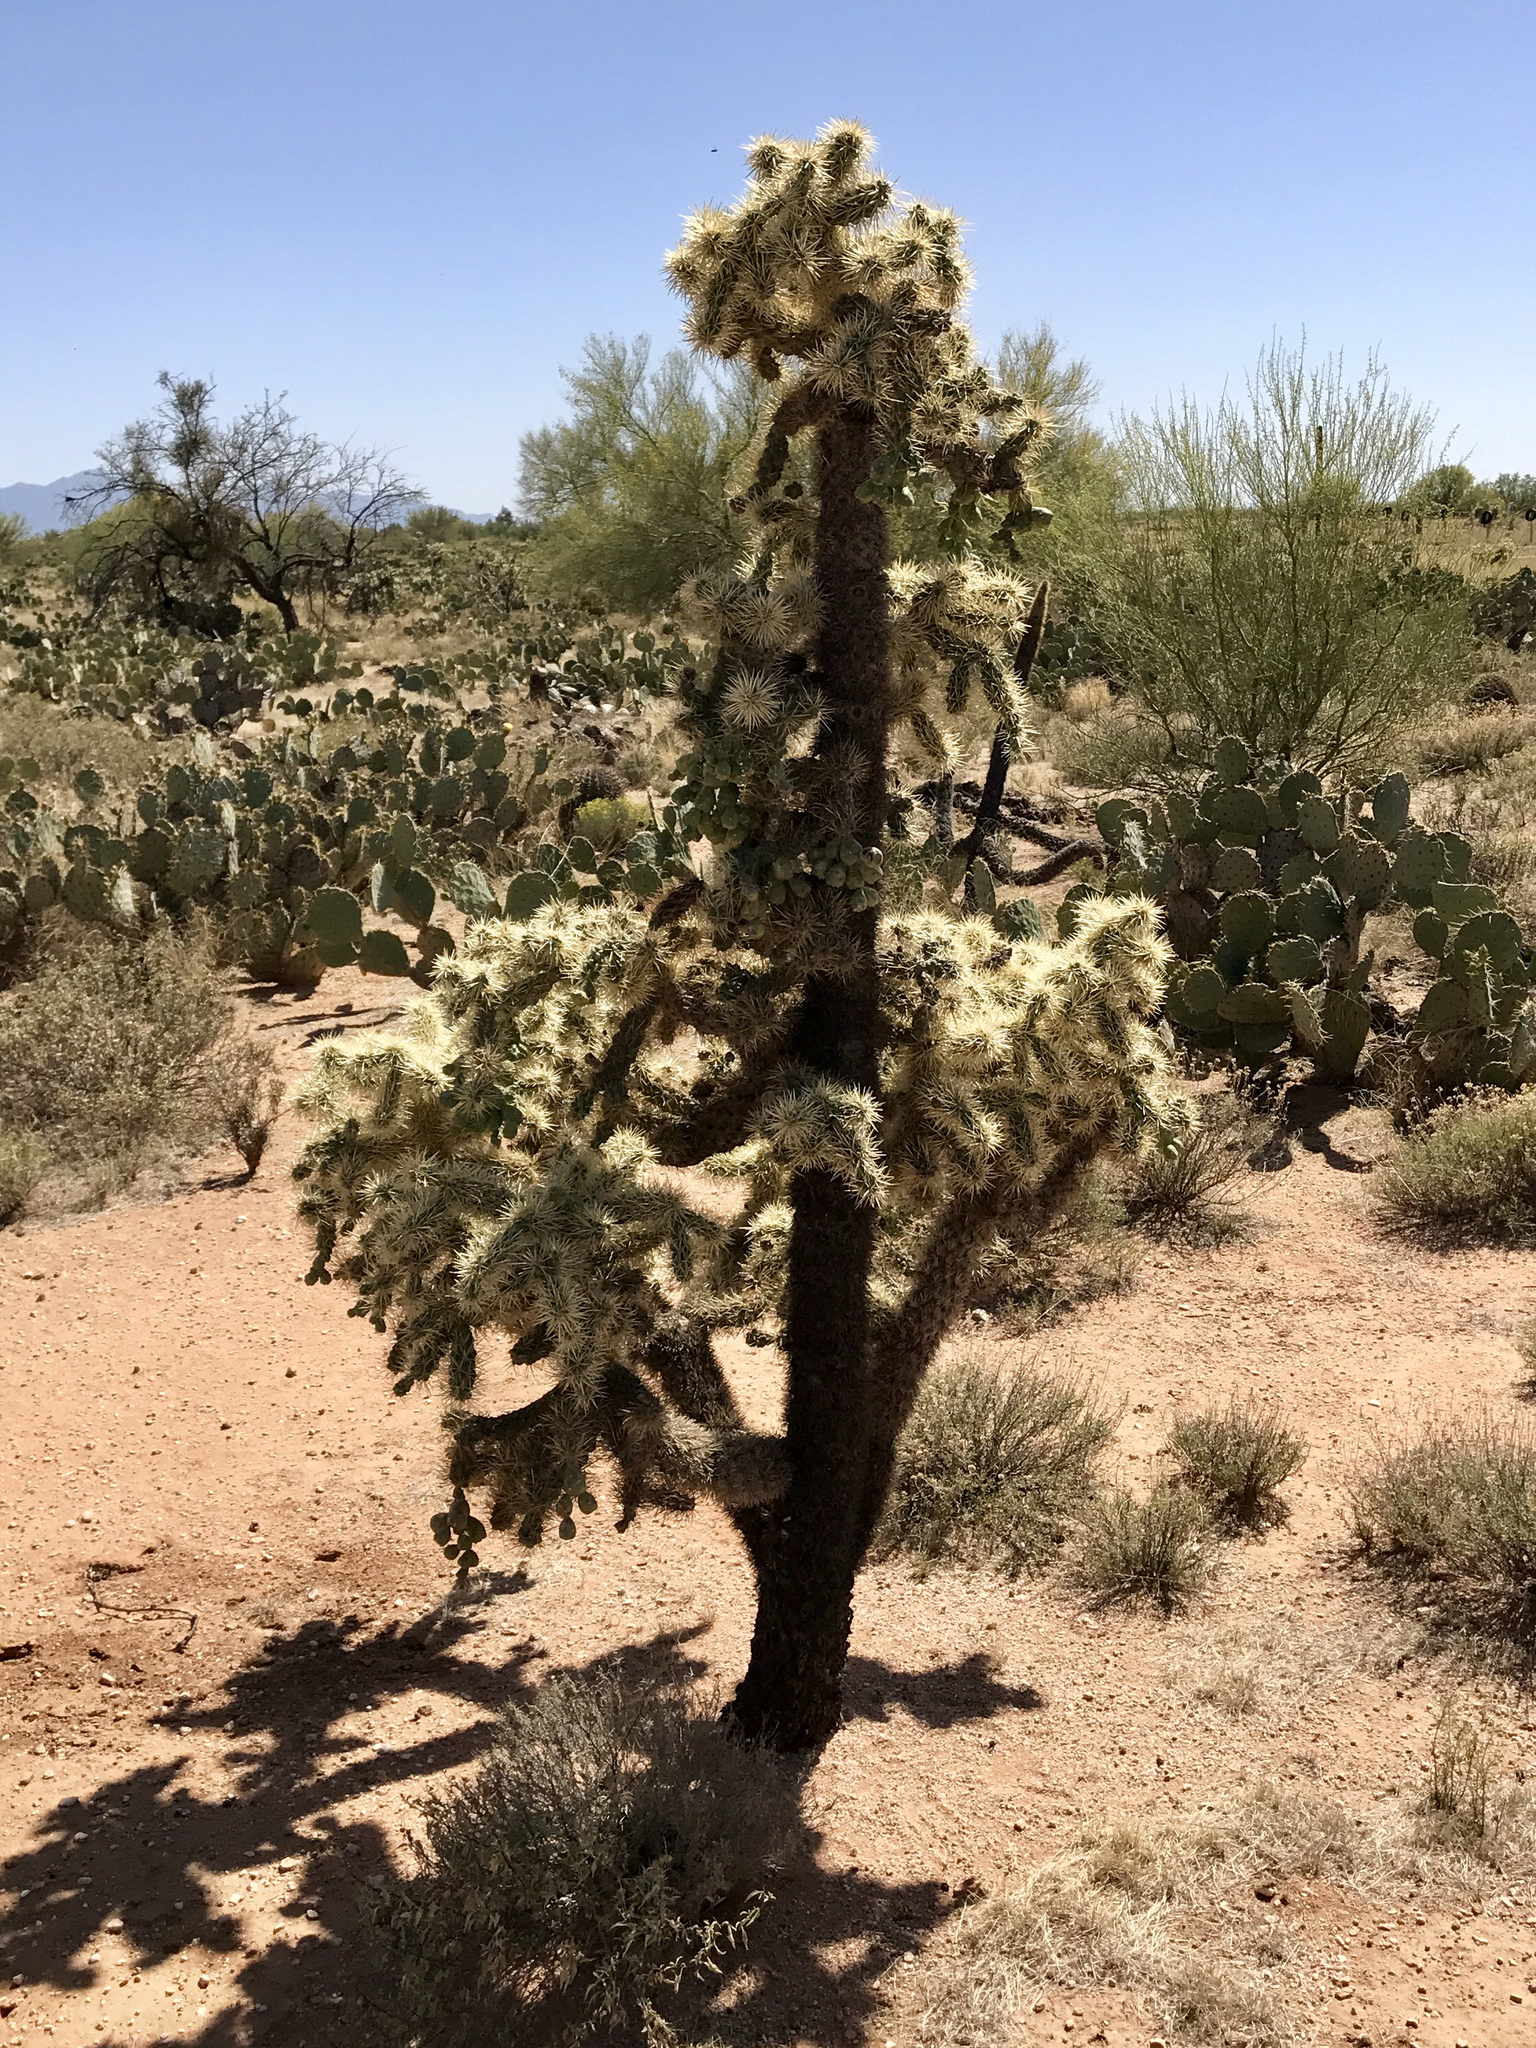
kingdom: Plantae
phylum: Tracheophyta
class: Magnoliopsida
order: Caryophyllales
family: Cactaceae
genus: Cylindropuntia
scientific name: Cylindropuntia fulgida
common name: Jumping cholla
